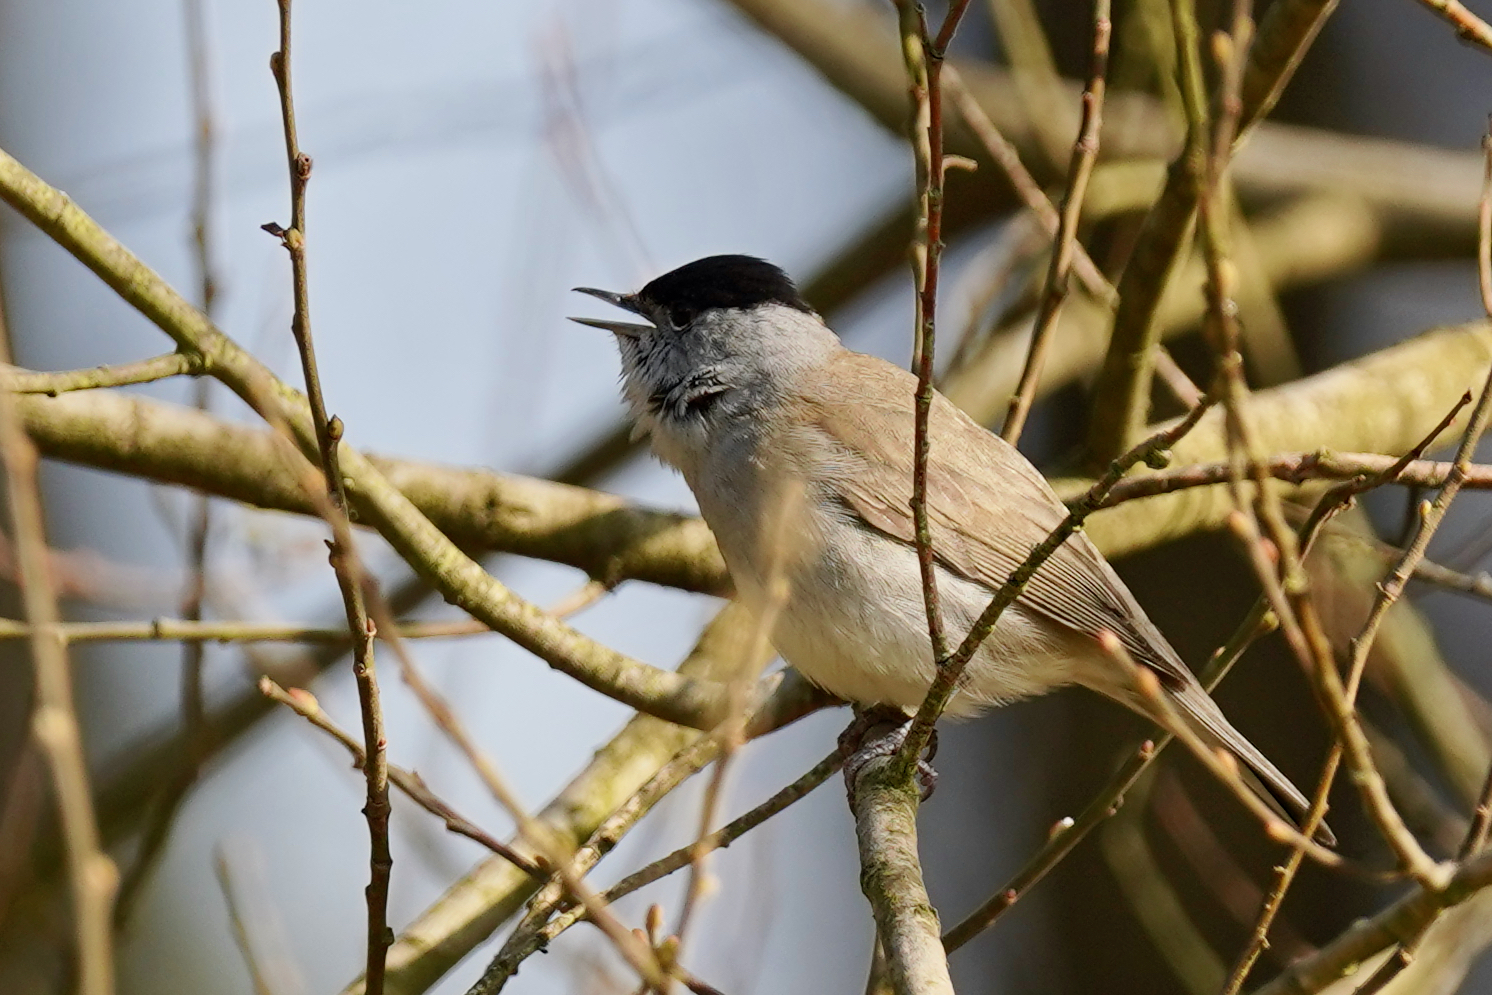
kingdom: Animalia
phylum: Chordata
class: Aves
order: Passeriformes
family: Sylviidae
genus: Sylvia
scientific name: Sylvia atricapilla
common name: Eurasian blackcap
